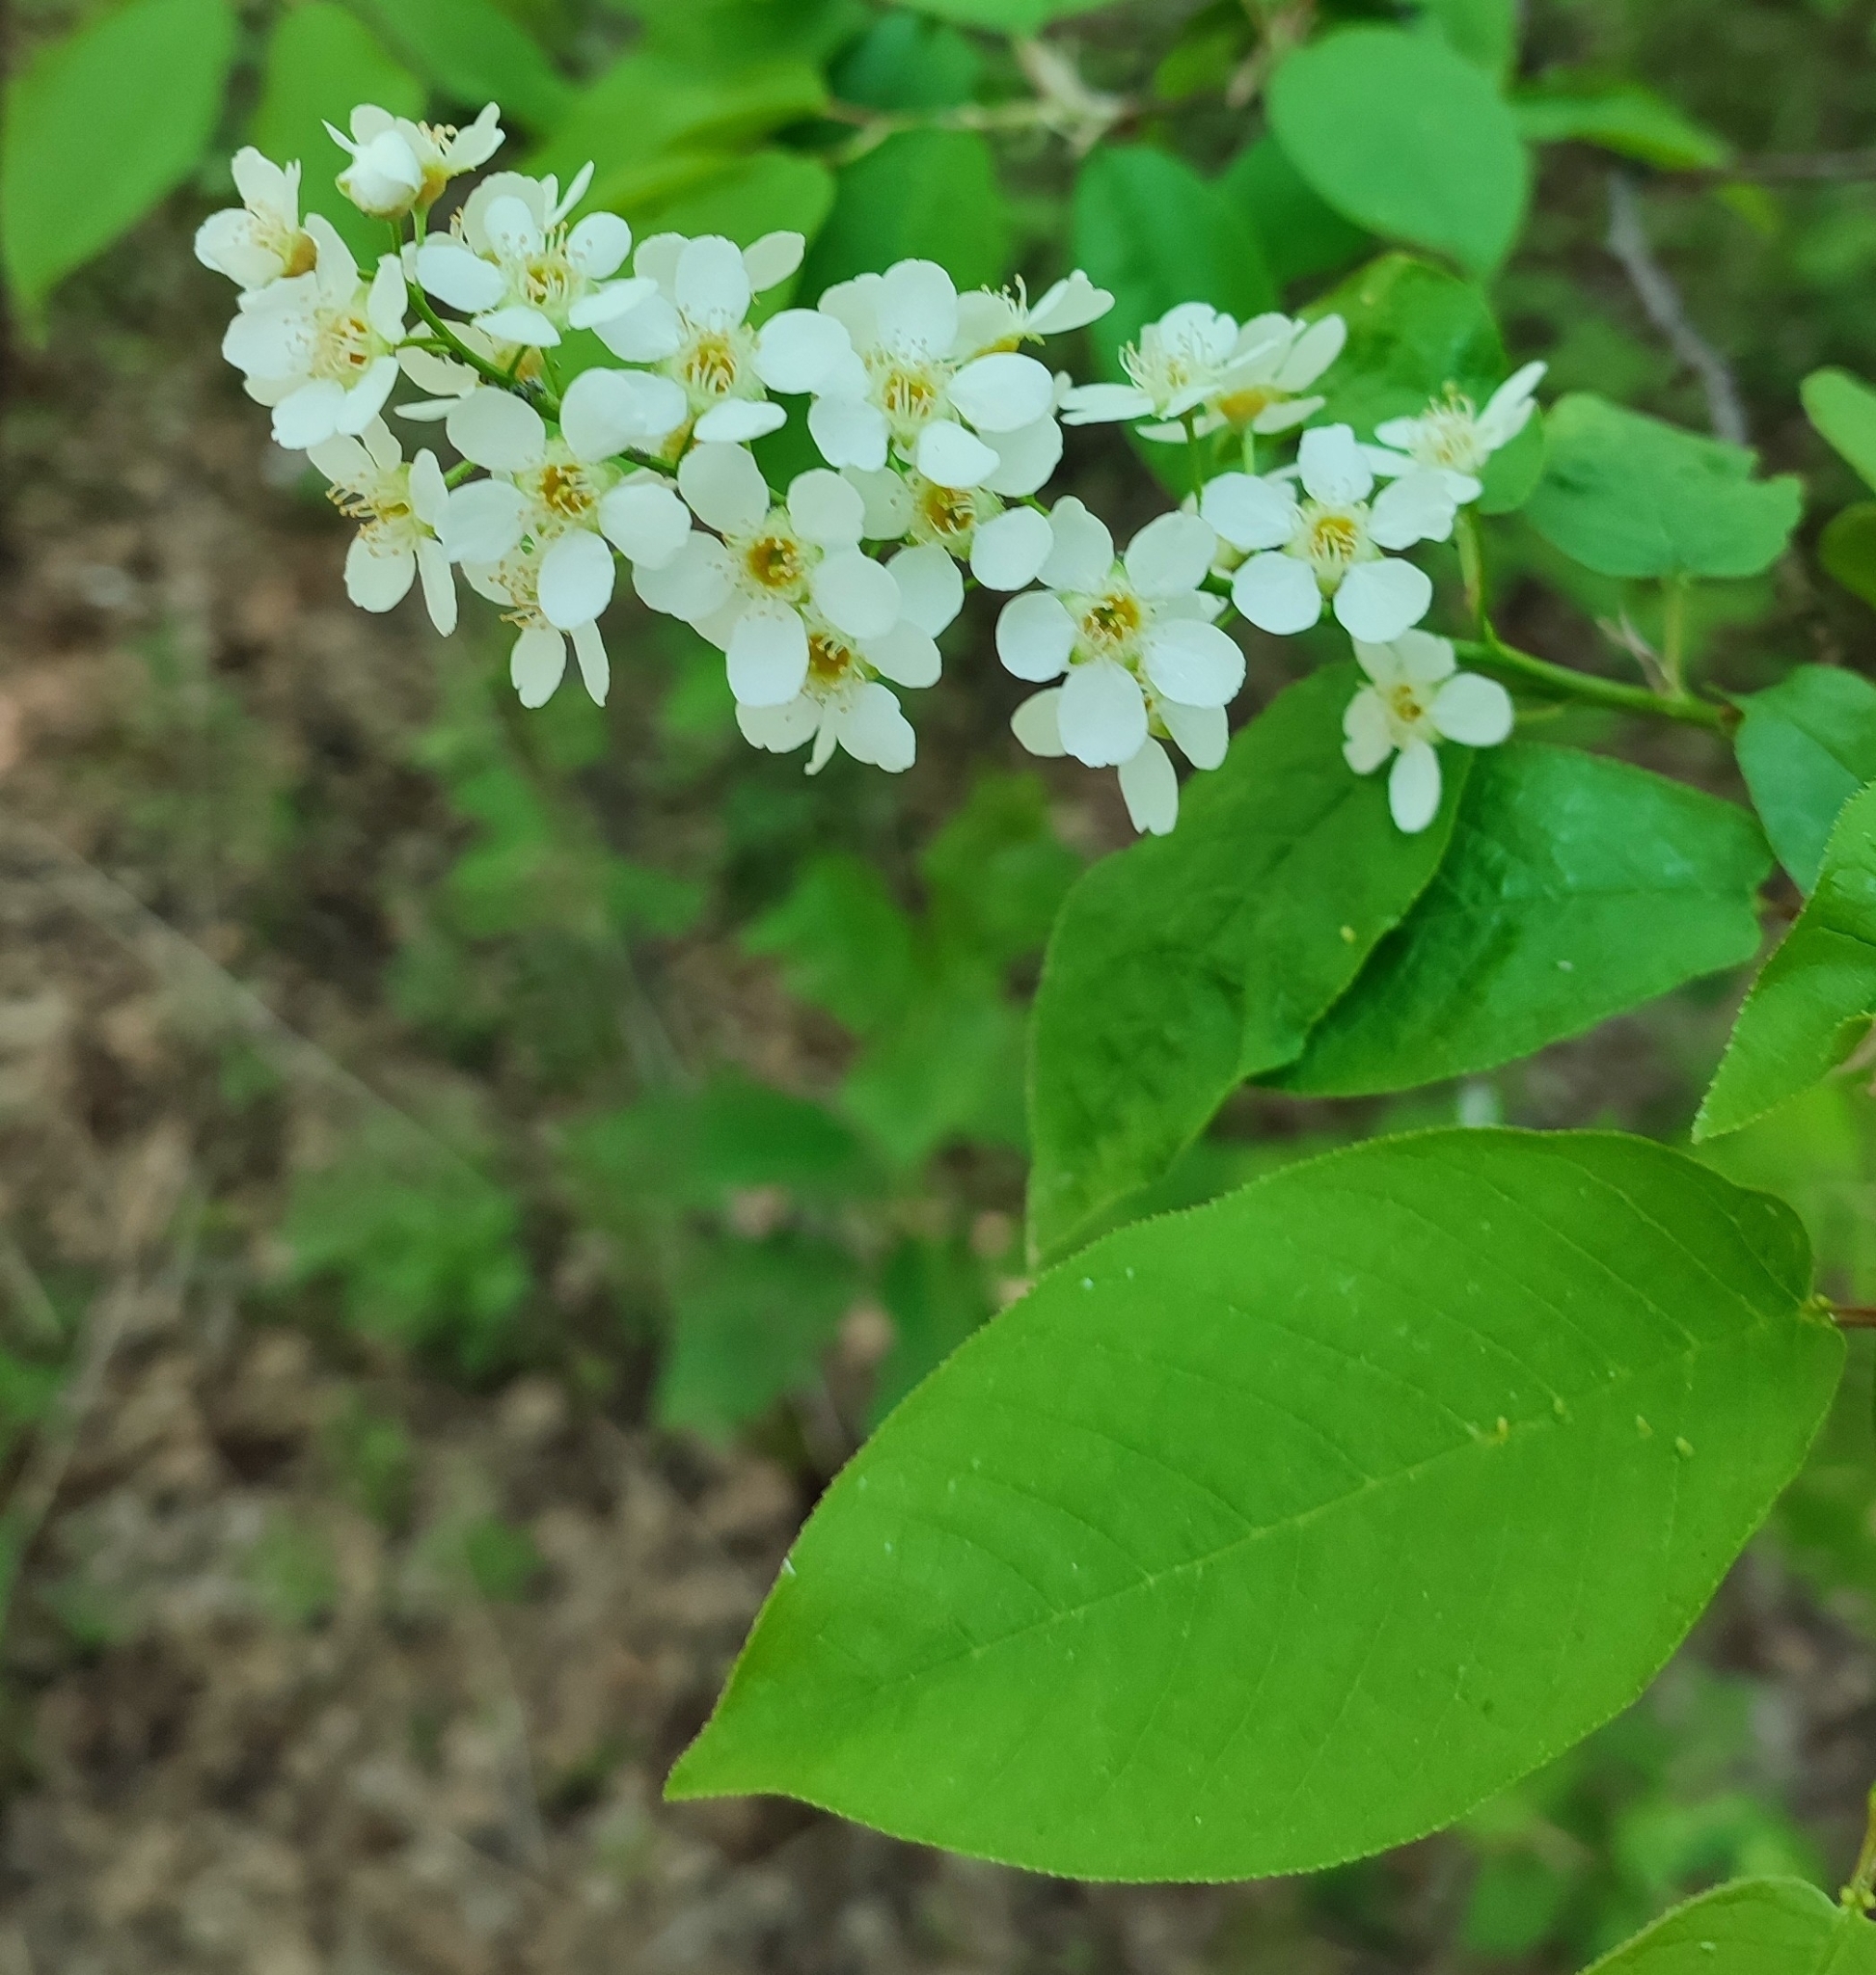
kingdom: Plantae
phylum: Tracheophyta
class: Magnoliopsida
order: Rosales
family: Rosaceae
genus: Prunus
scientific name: Prunus padus
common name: Bird cherry
